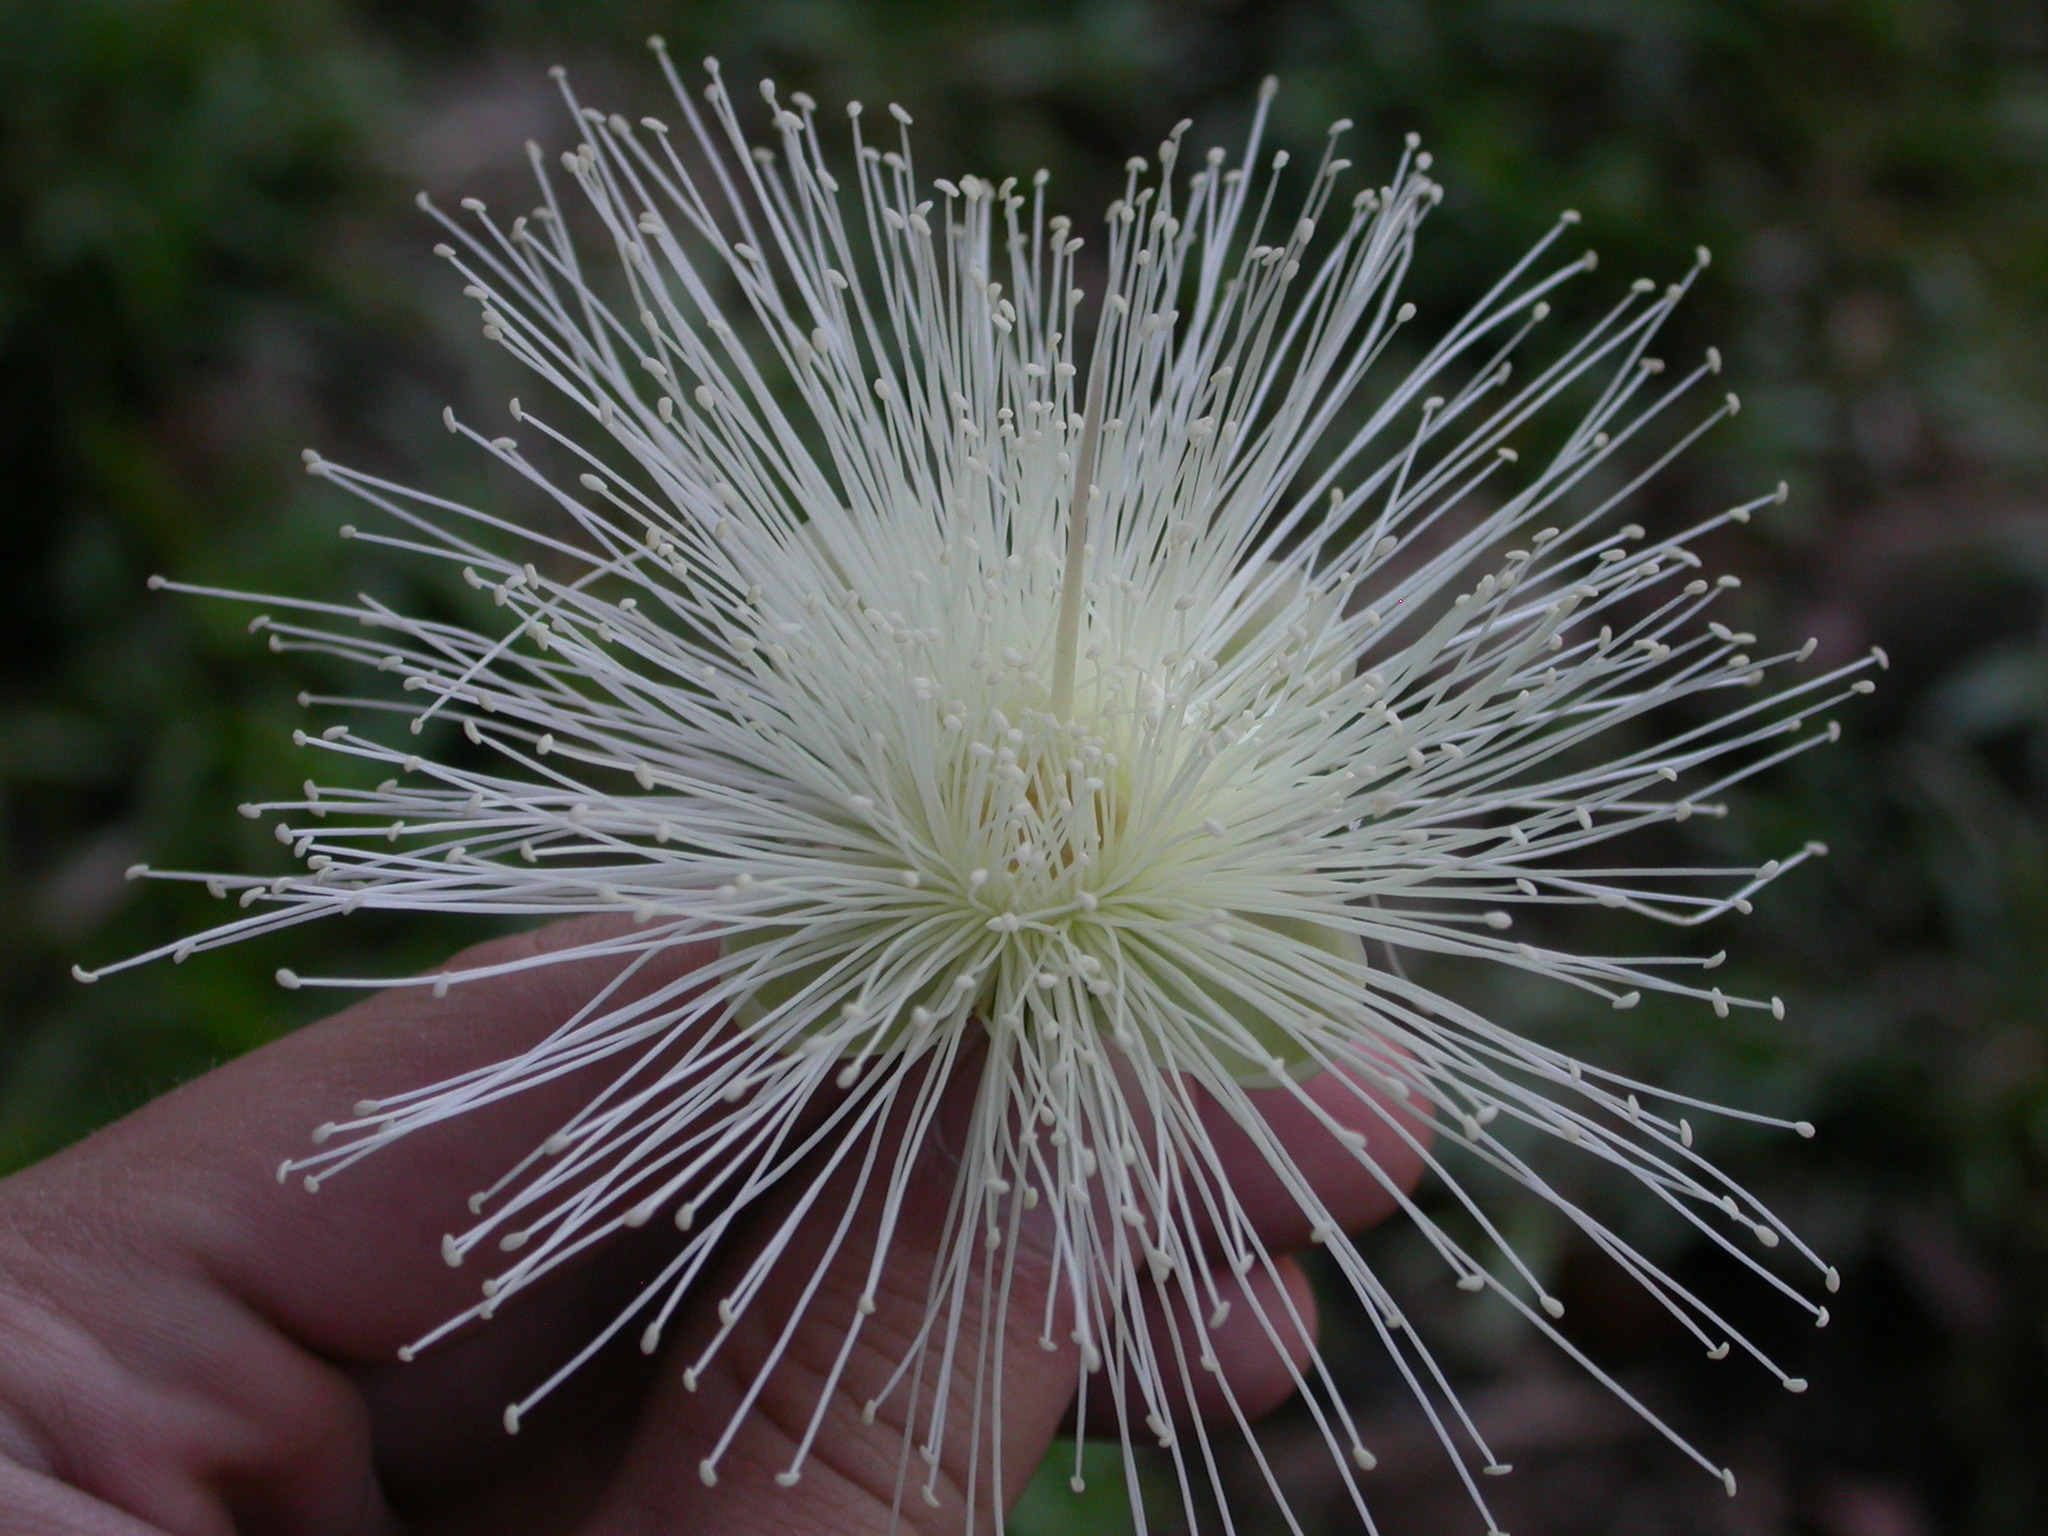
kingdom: Plantae
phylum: Tracheophyta
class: Magnoliopsida
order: Myrtales
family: Myrtaceae
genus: Syzygium
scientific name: Syzygium jambos
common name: Malabar plum
